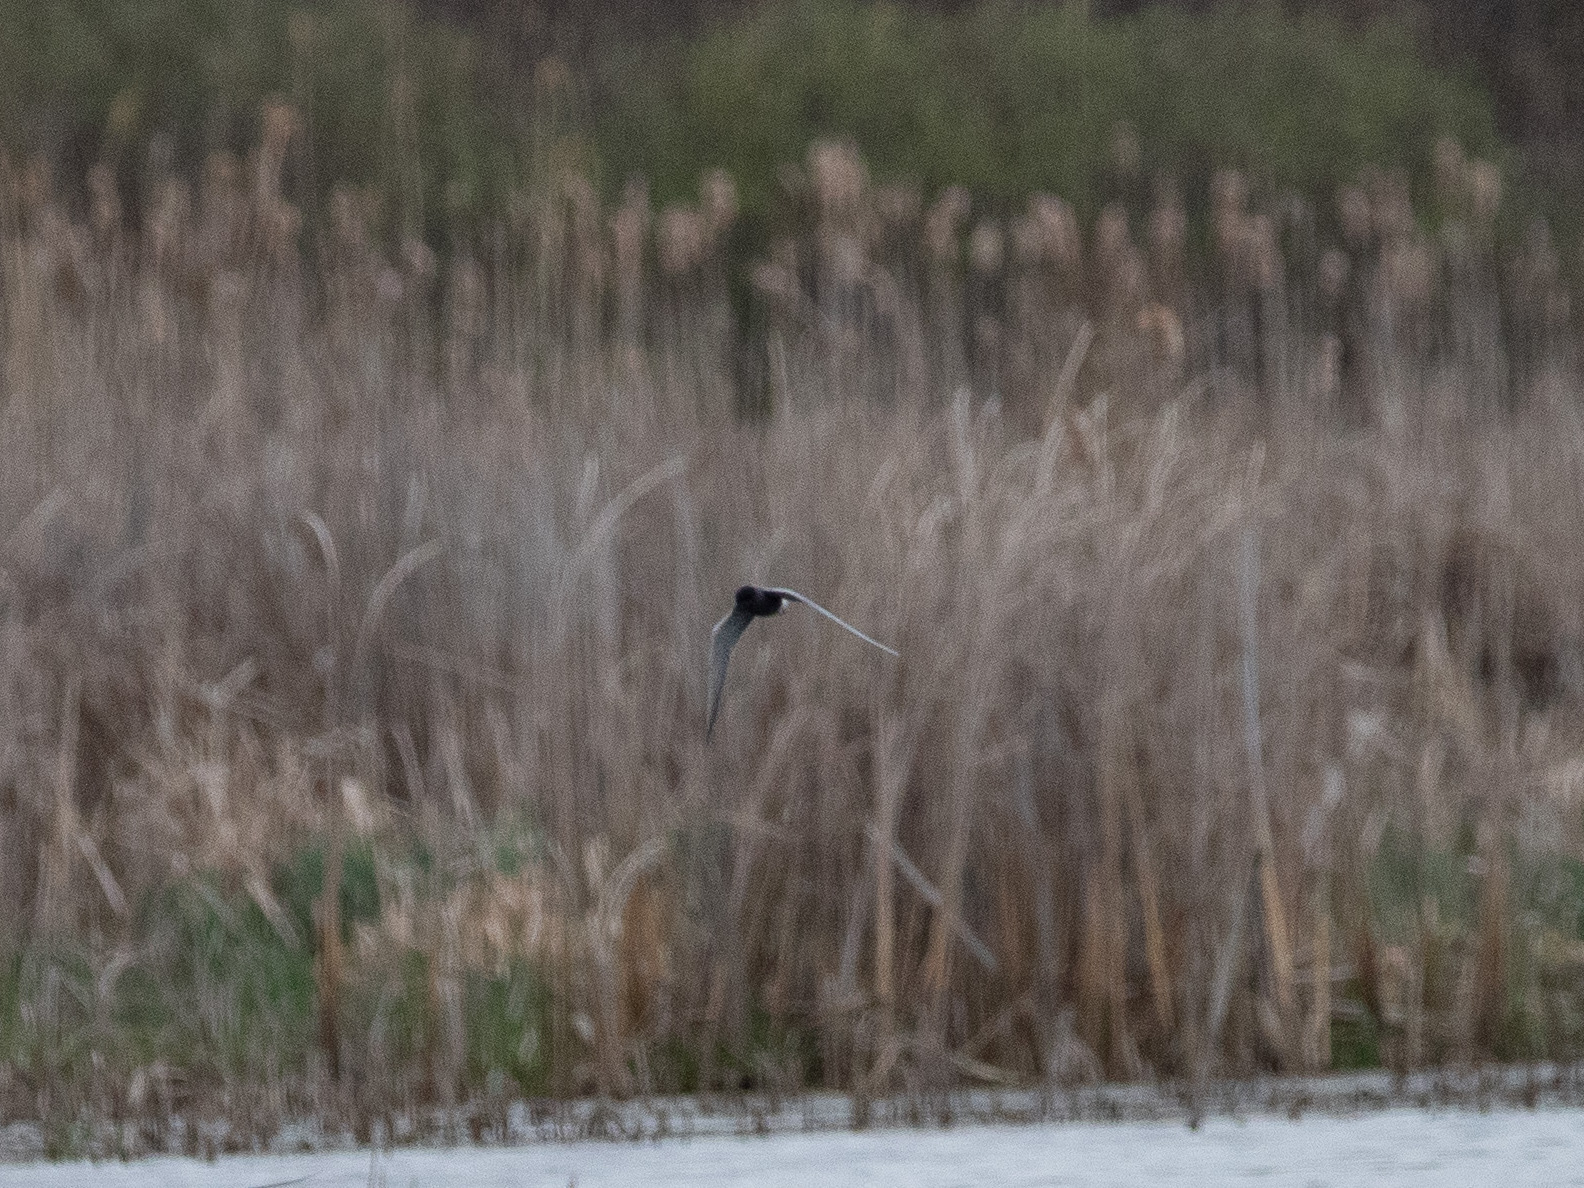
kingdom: Animalia
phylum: Chordata
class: Aves
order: Charadriiformes
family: Laridae
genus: Chlidonias
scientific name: Chlidonias niger
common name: Black tern
